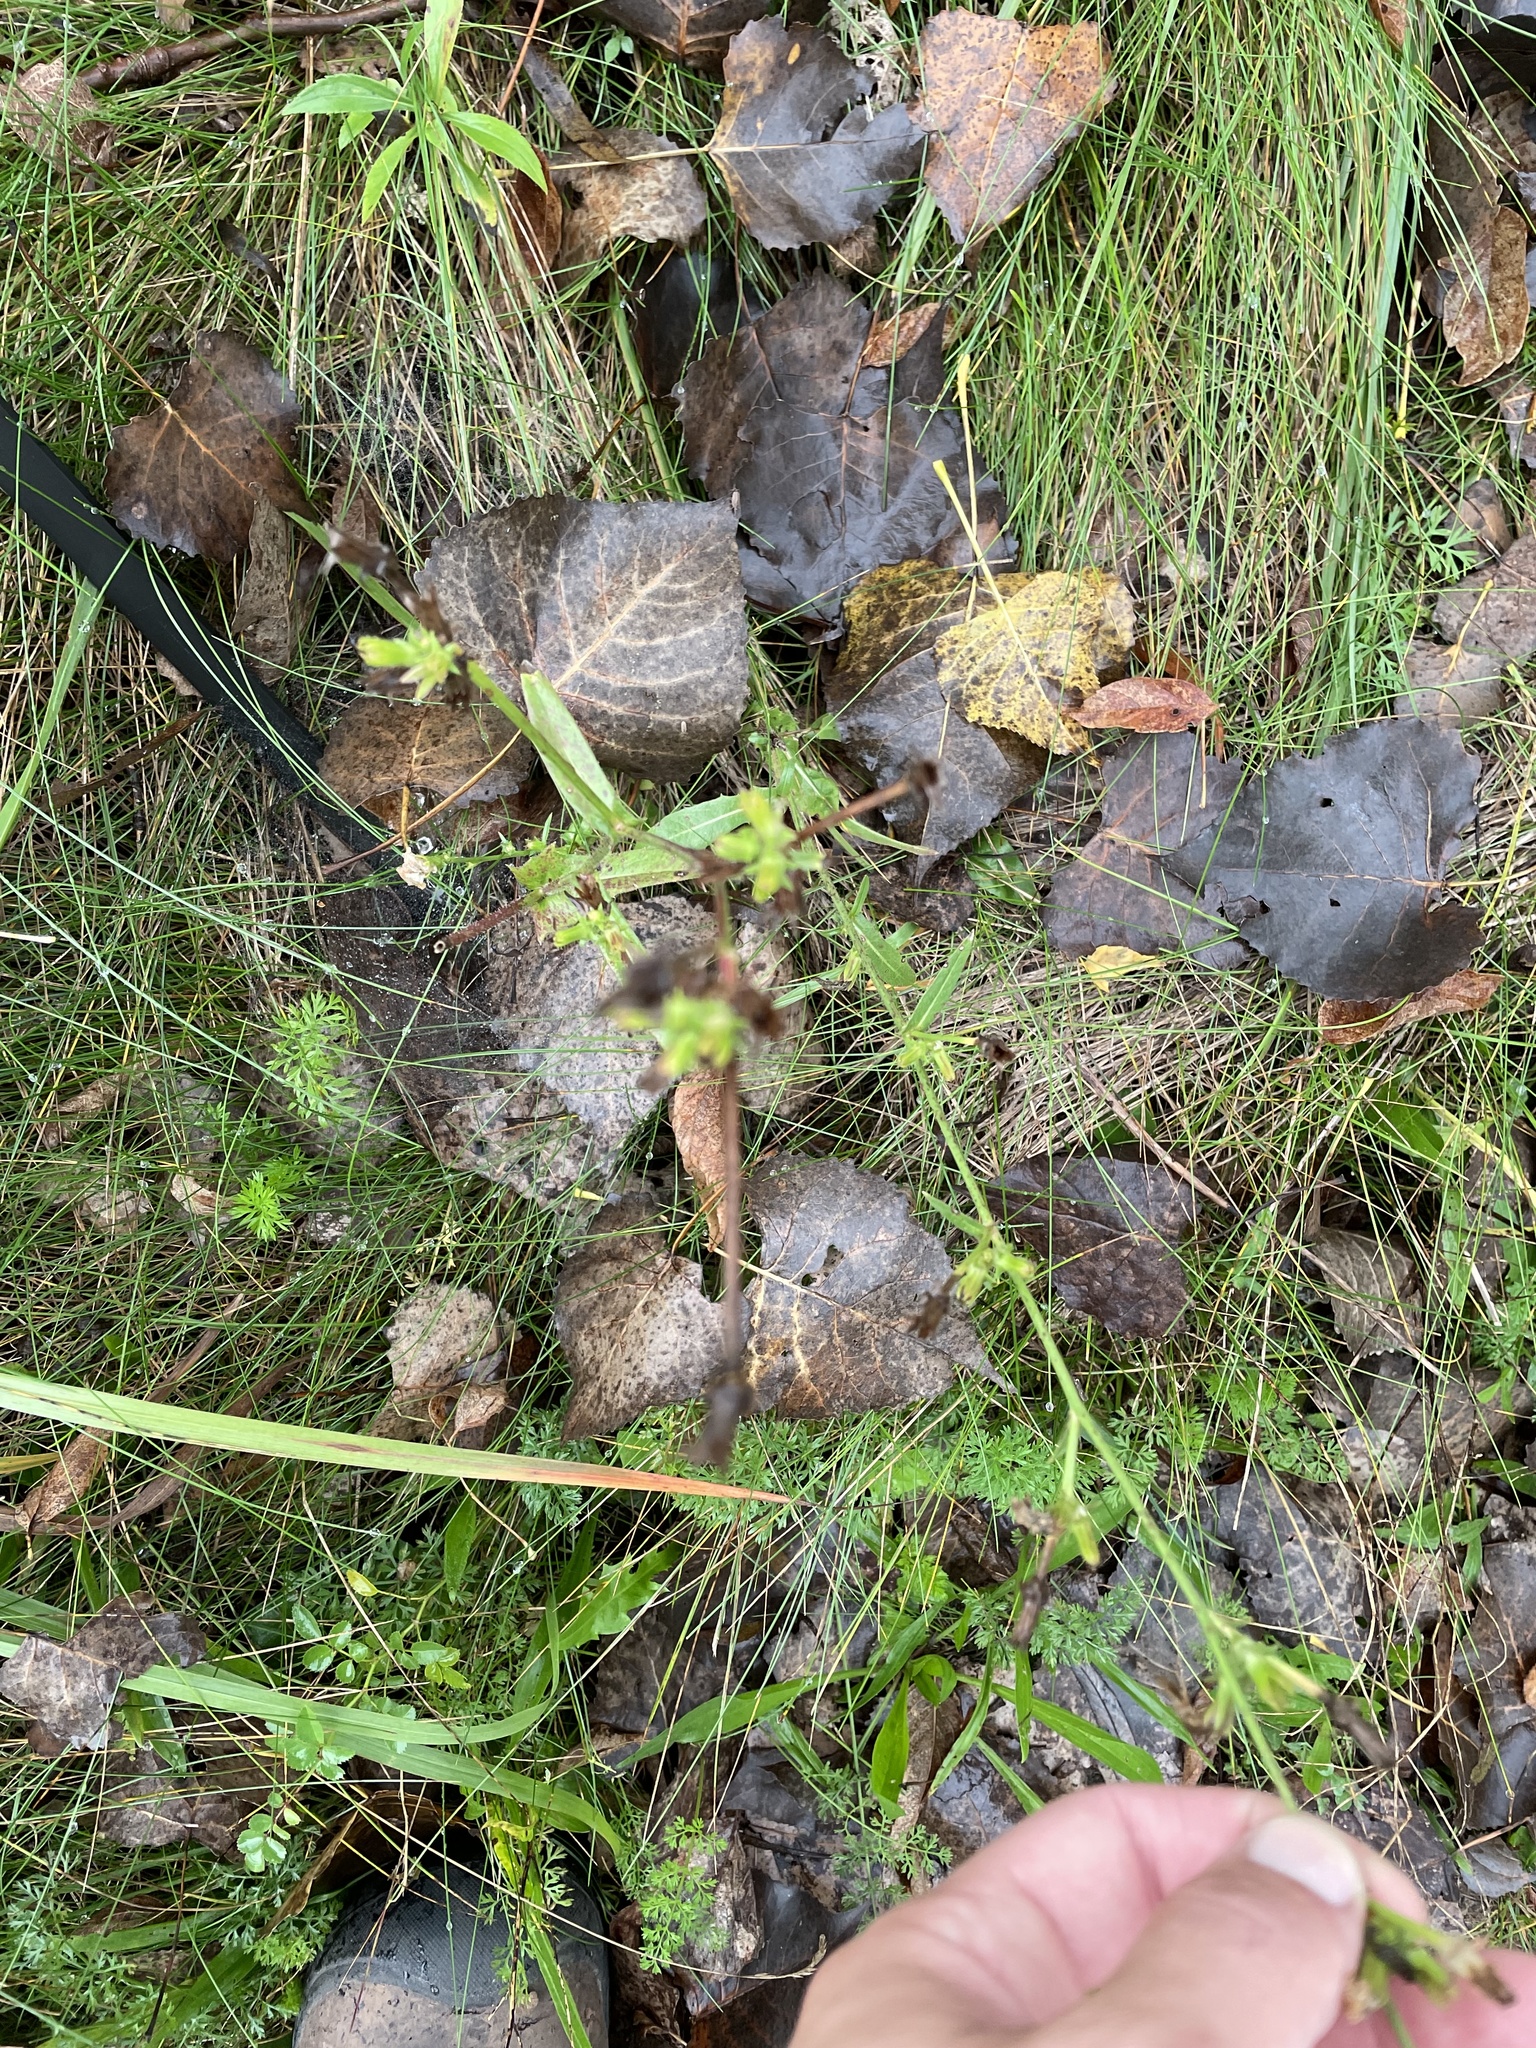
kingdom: Plantae
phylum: Tracheophyta
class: Magnoliopsida
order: Asterales
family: Asteraceae
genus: Cichorium
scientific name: Cichorium intybus
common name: Chicory
